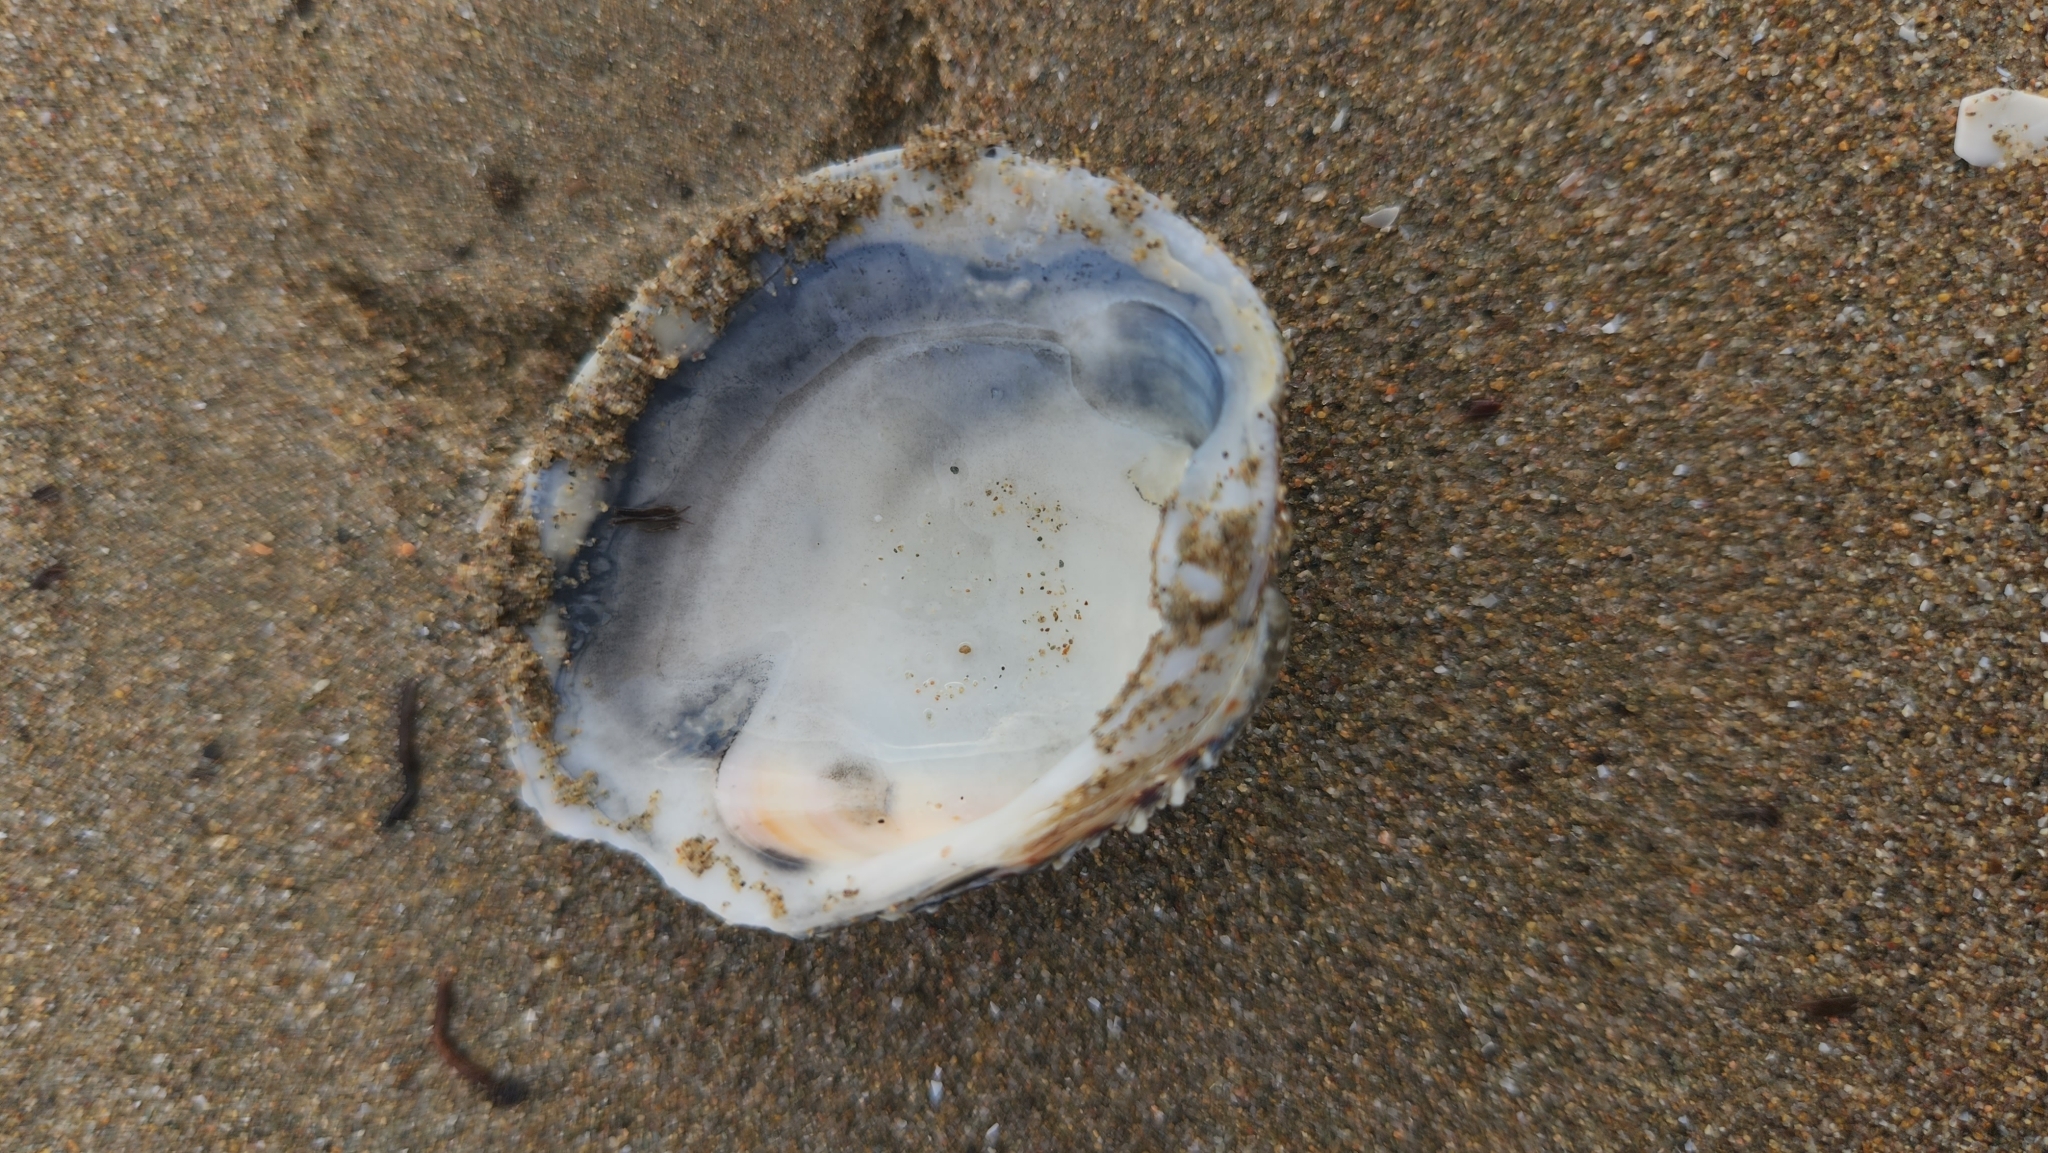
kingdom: Animalia
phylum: Mollusca
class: Bivalvia
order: Venerida
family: Veneridae
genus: Venus
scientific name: Venus verrucosa
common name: Warty venus
